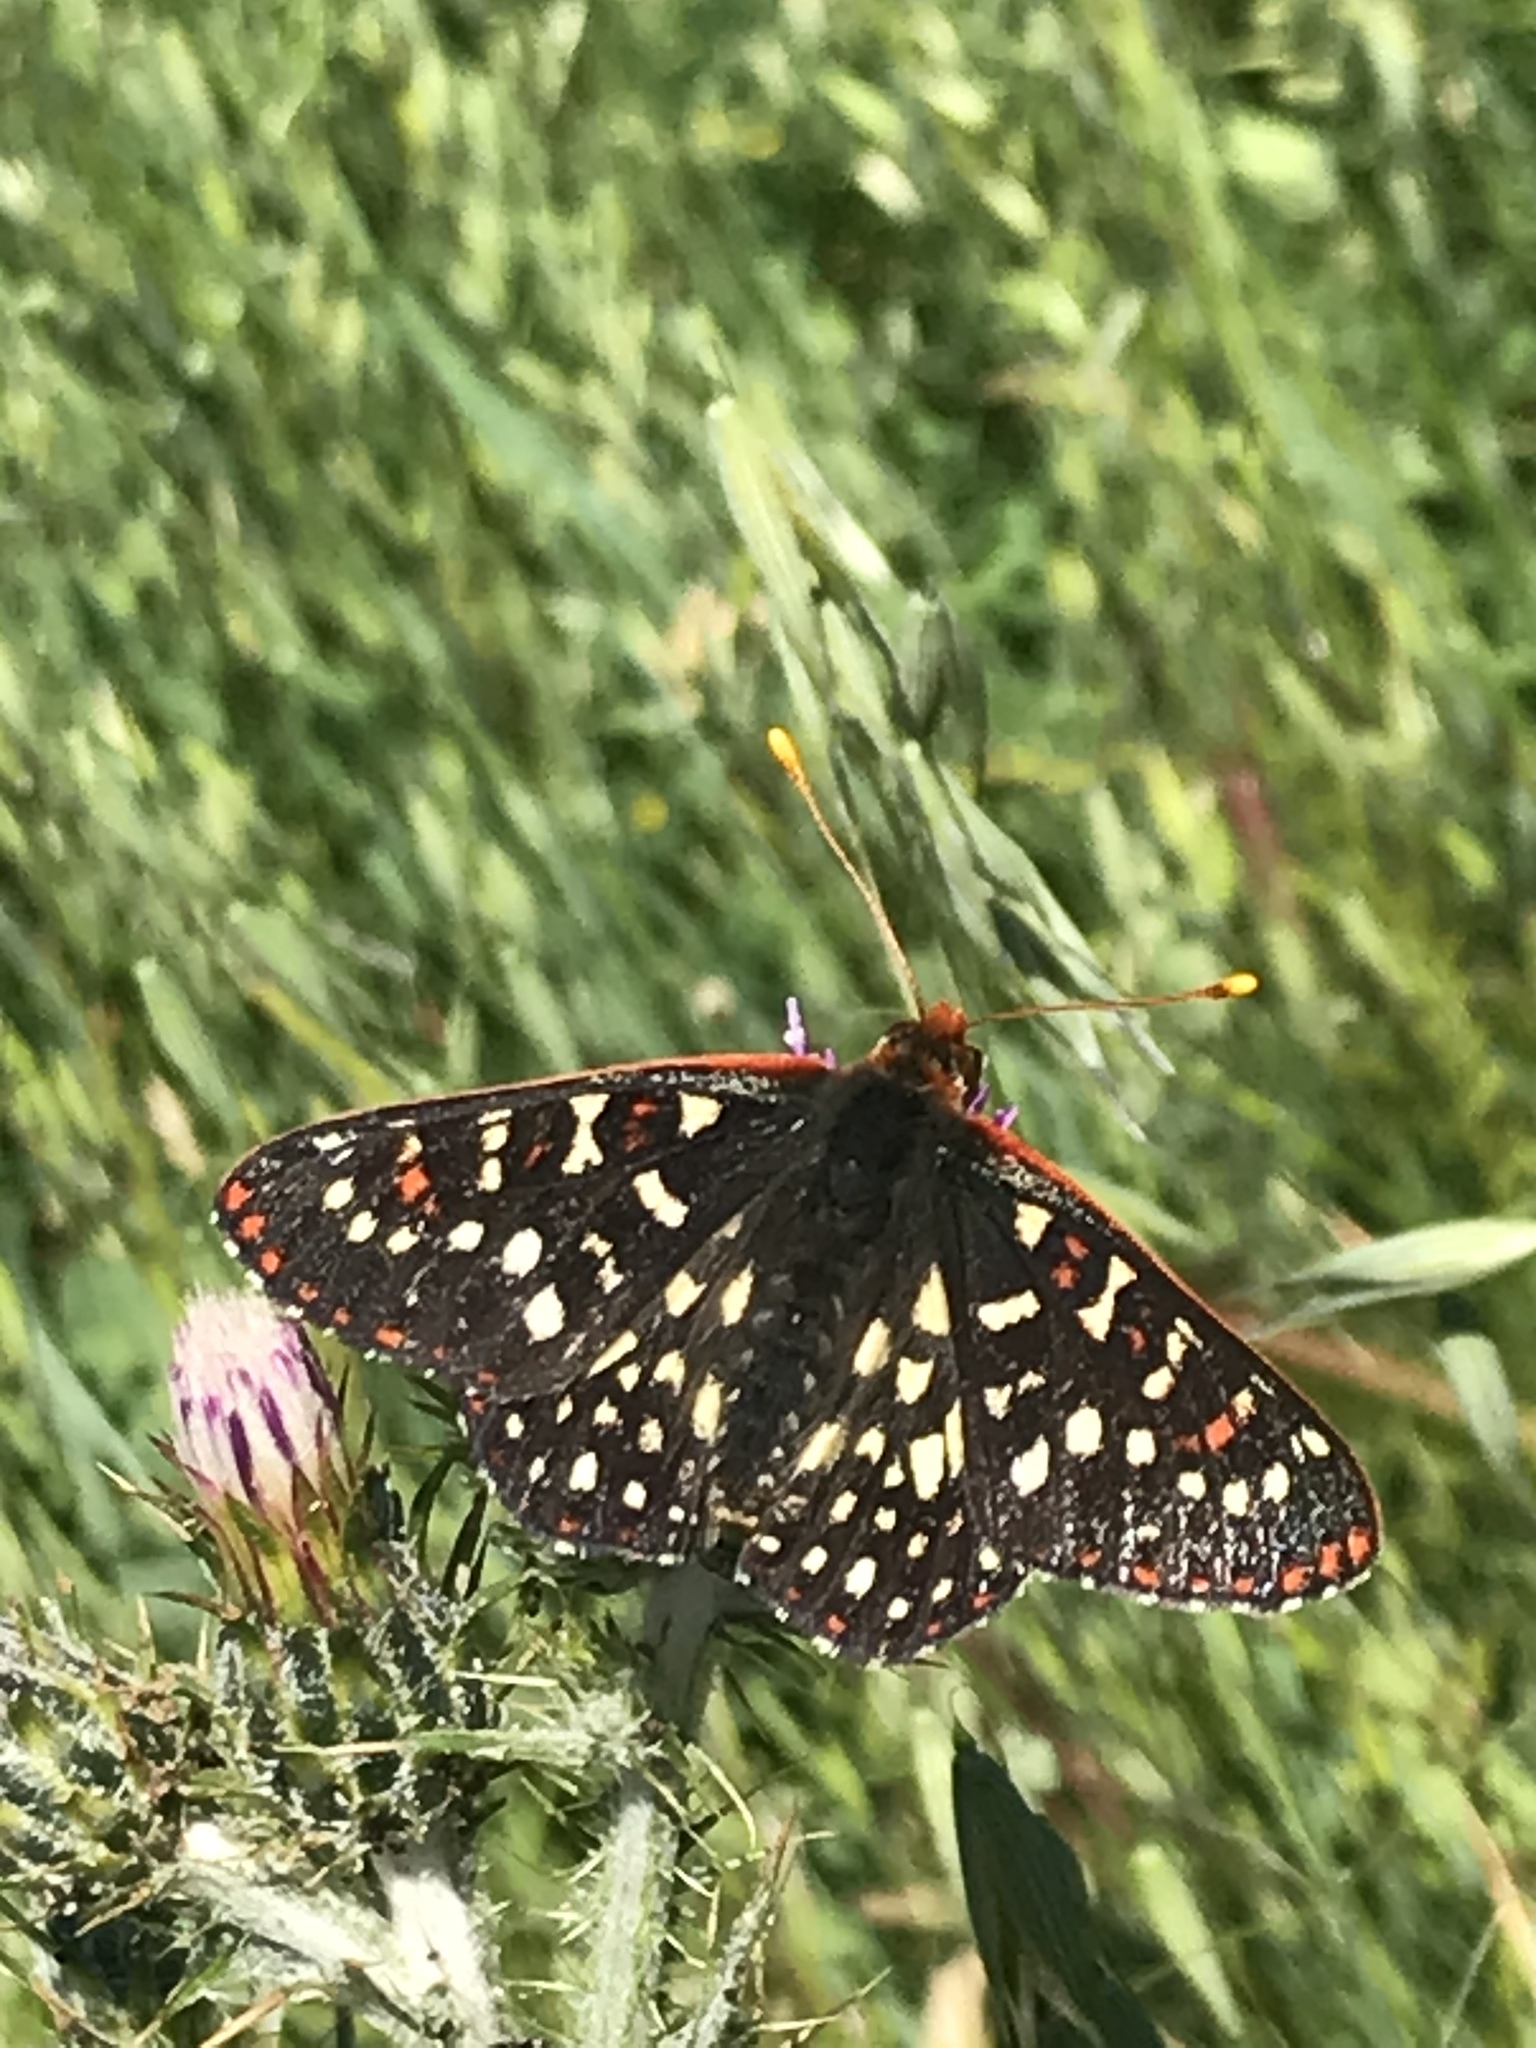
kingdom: Animalia
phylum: Arthropoda
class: Insecta
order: Lepidoptera
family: Nymphalidae
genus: Occidryas
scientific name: Occidryas chalcedona
